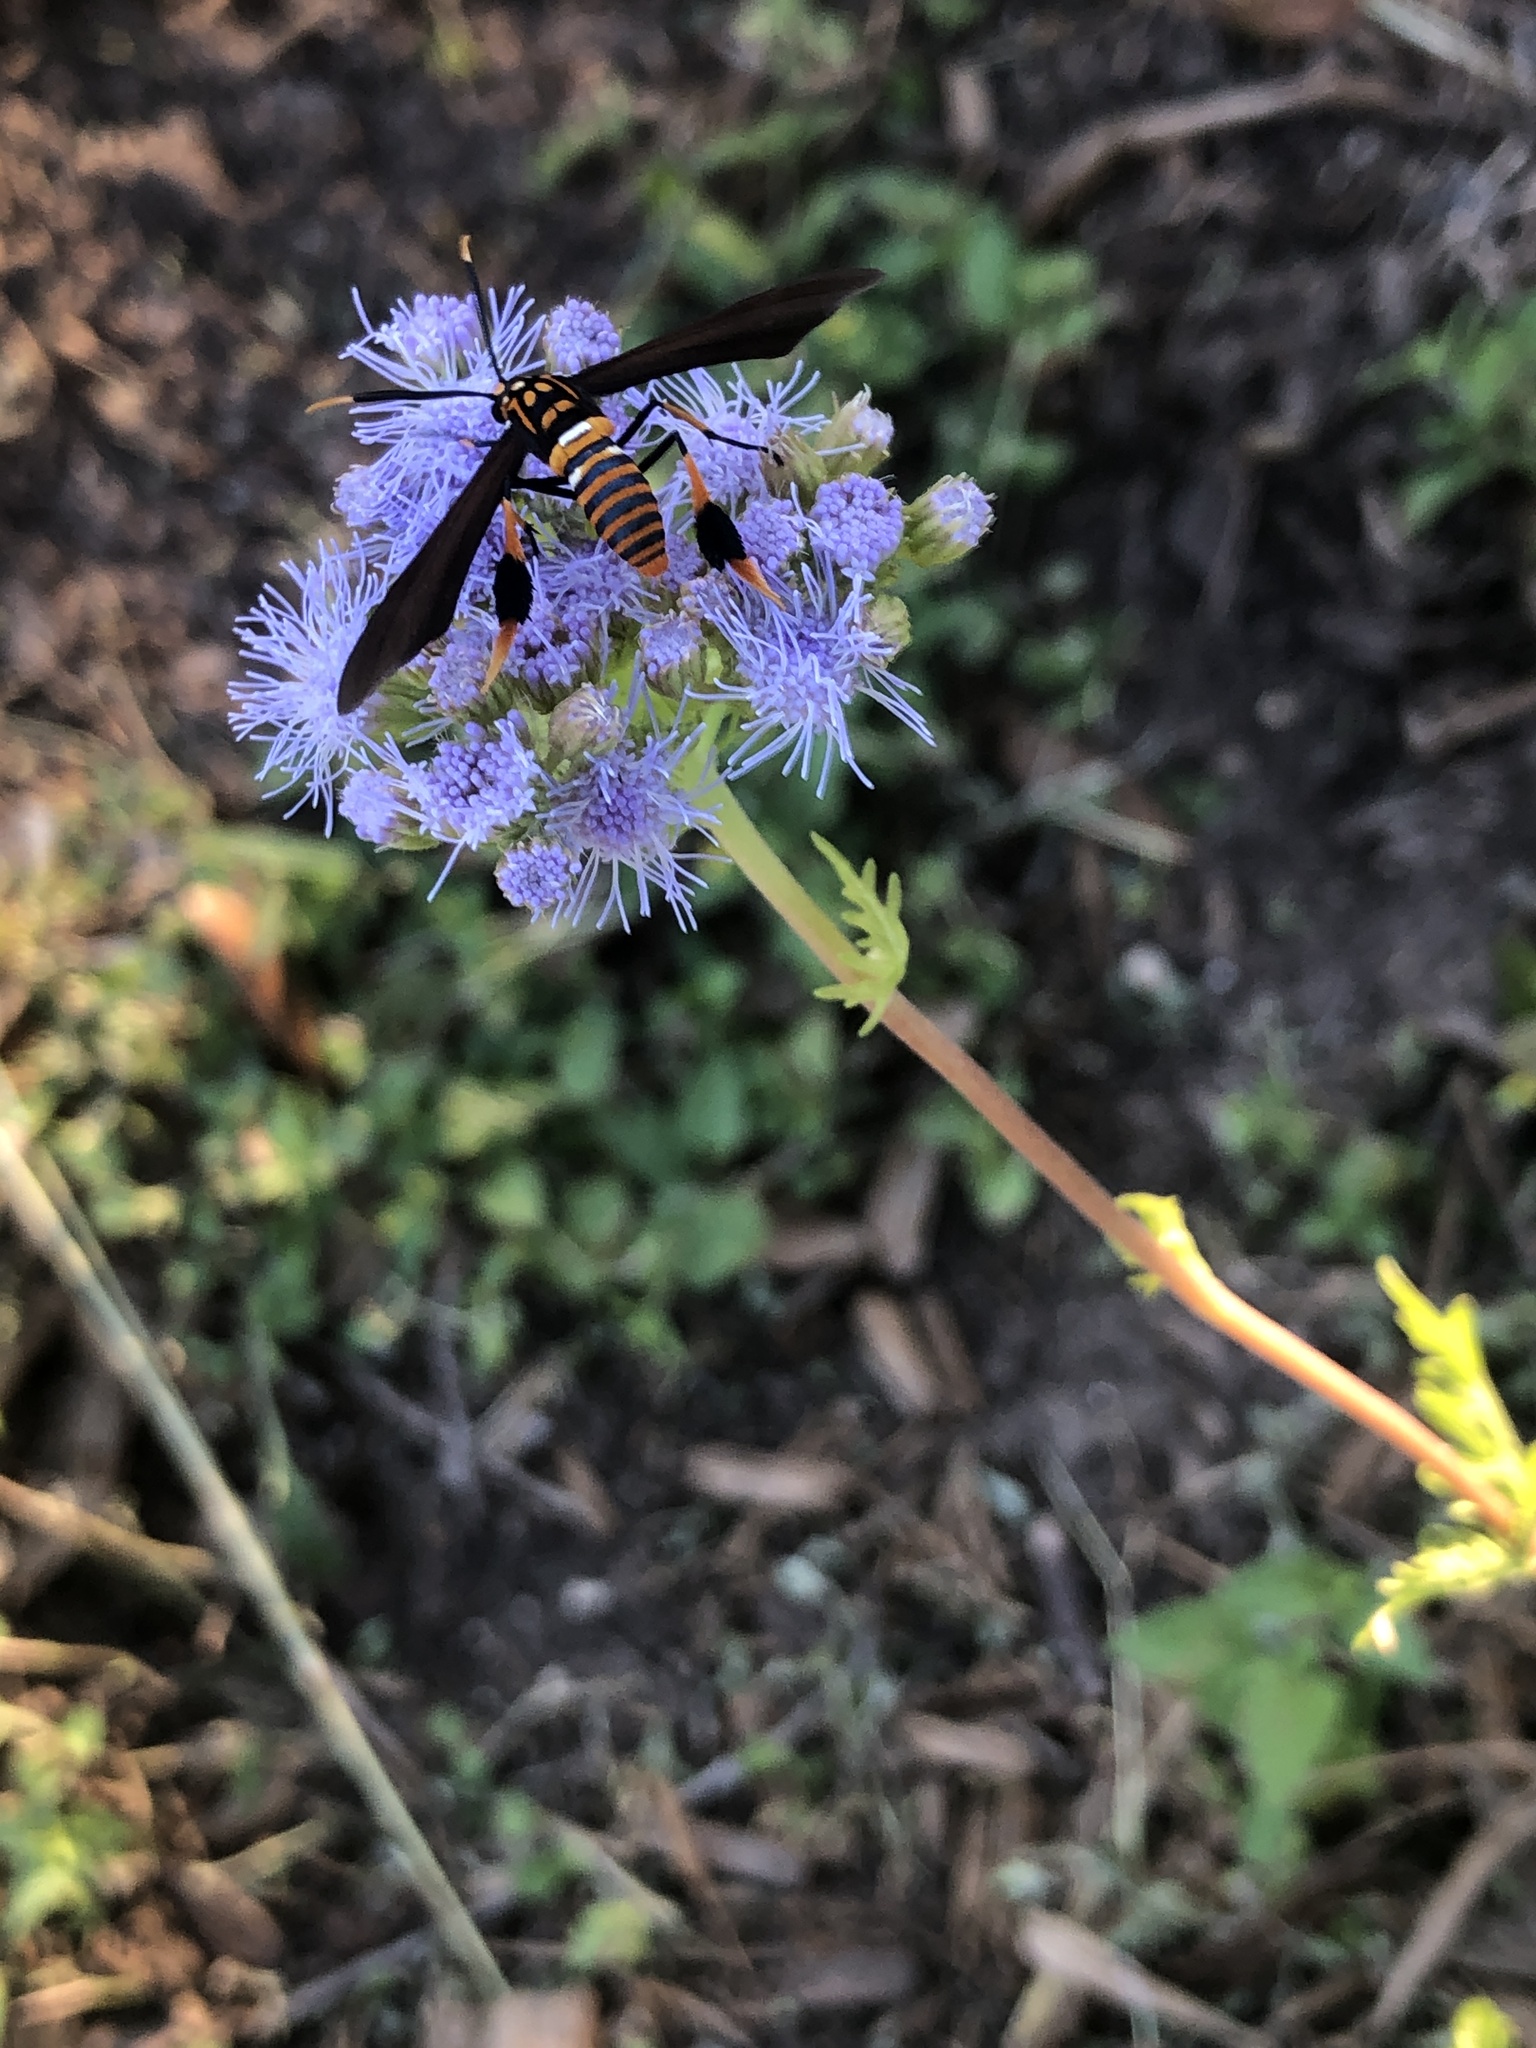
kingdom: Animalia
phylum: Arthropoda
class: Insecta
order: Lepidoptera
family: Erebidae
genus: Horama
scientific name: Horama panthalon
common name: Texas wasp moth
